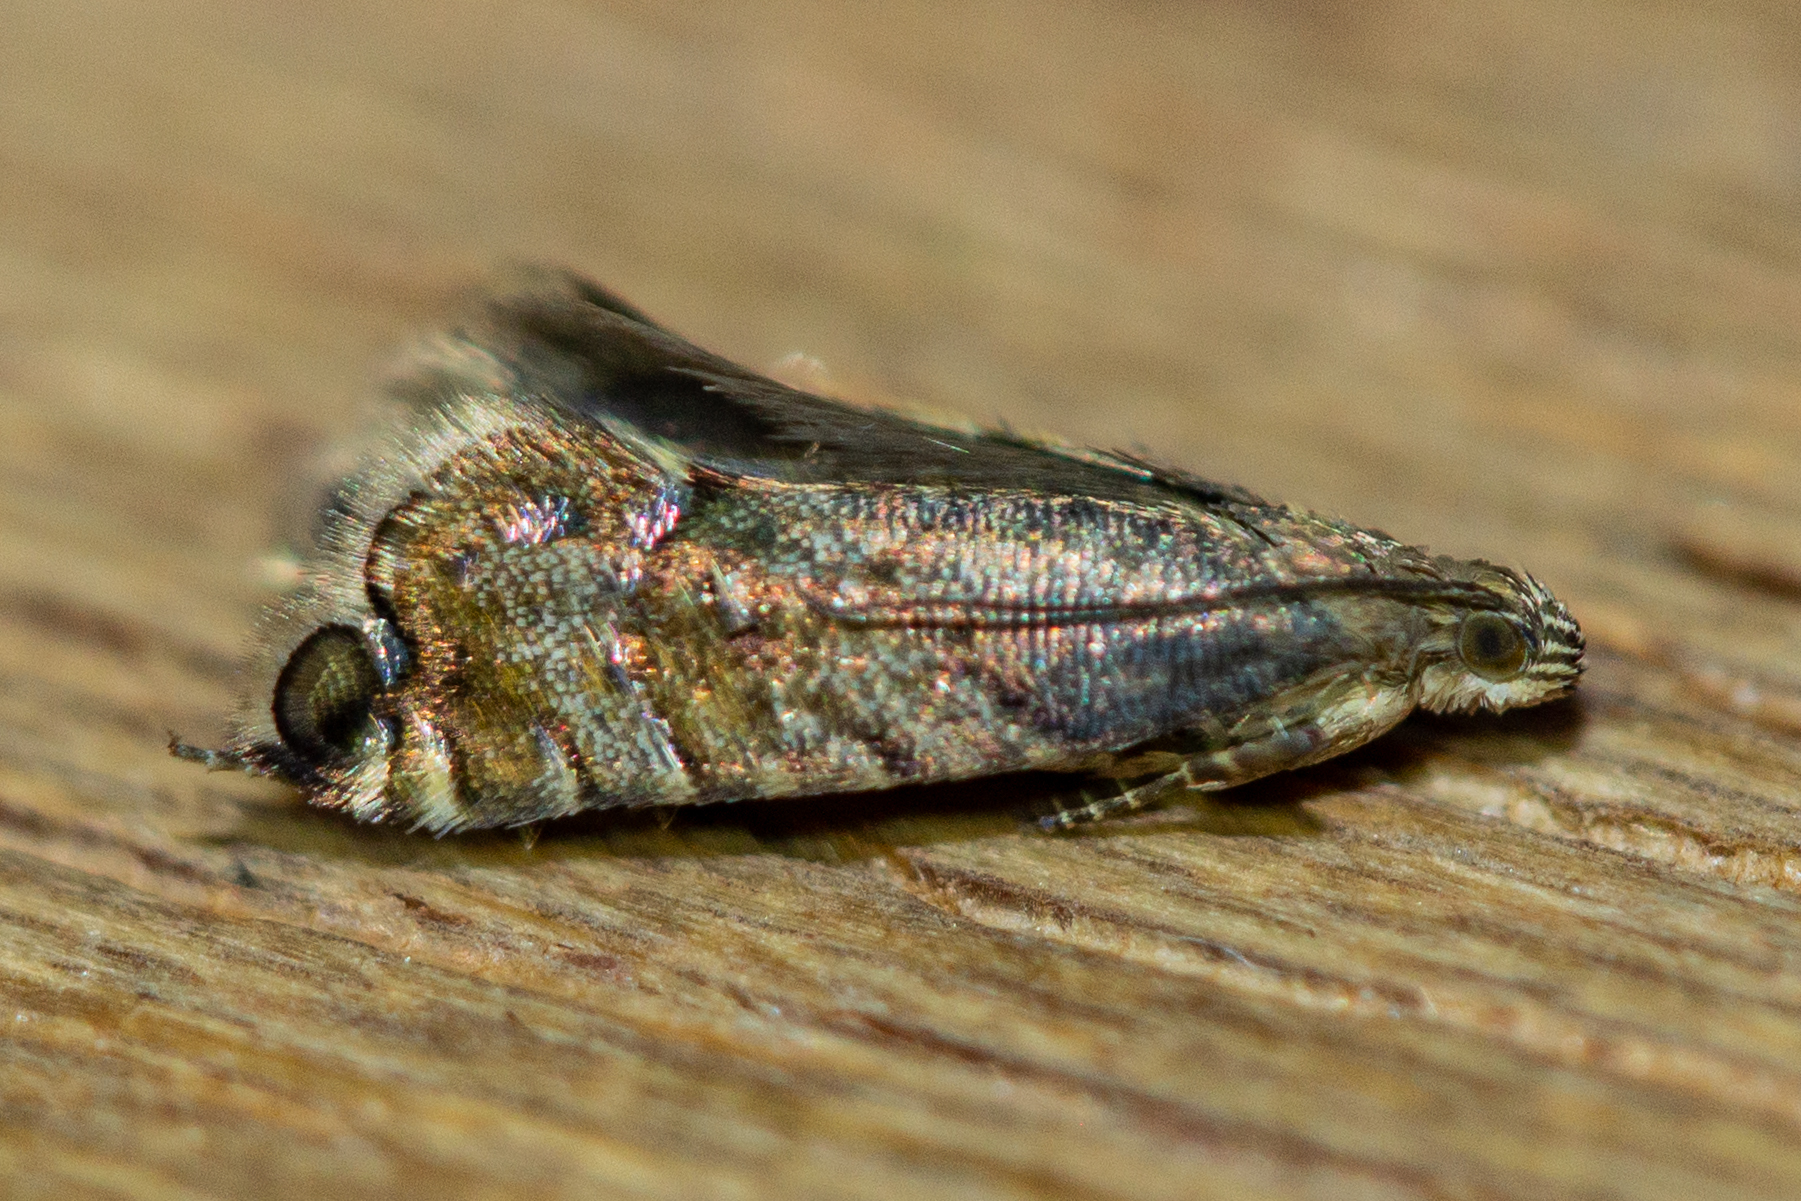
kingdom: Animalia
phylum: Arthropoda
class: Insecta
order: Lepidoptera
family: Glyphipterigidae
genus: Glyphipterix
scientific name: Glyphipterix nephoptera
